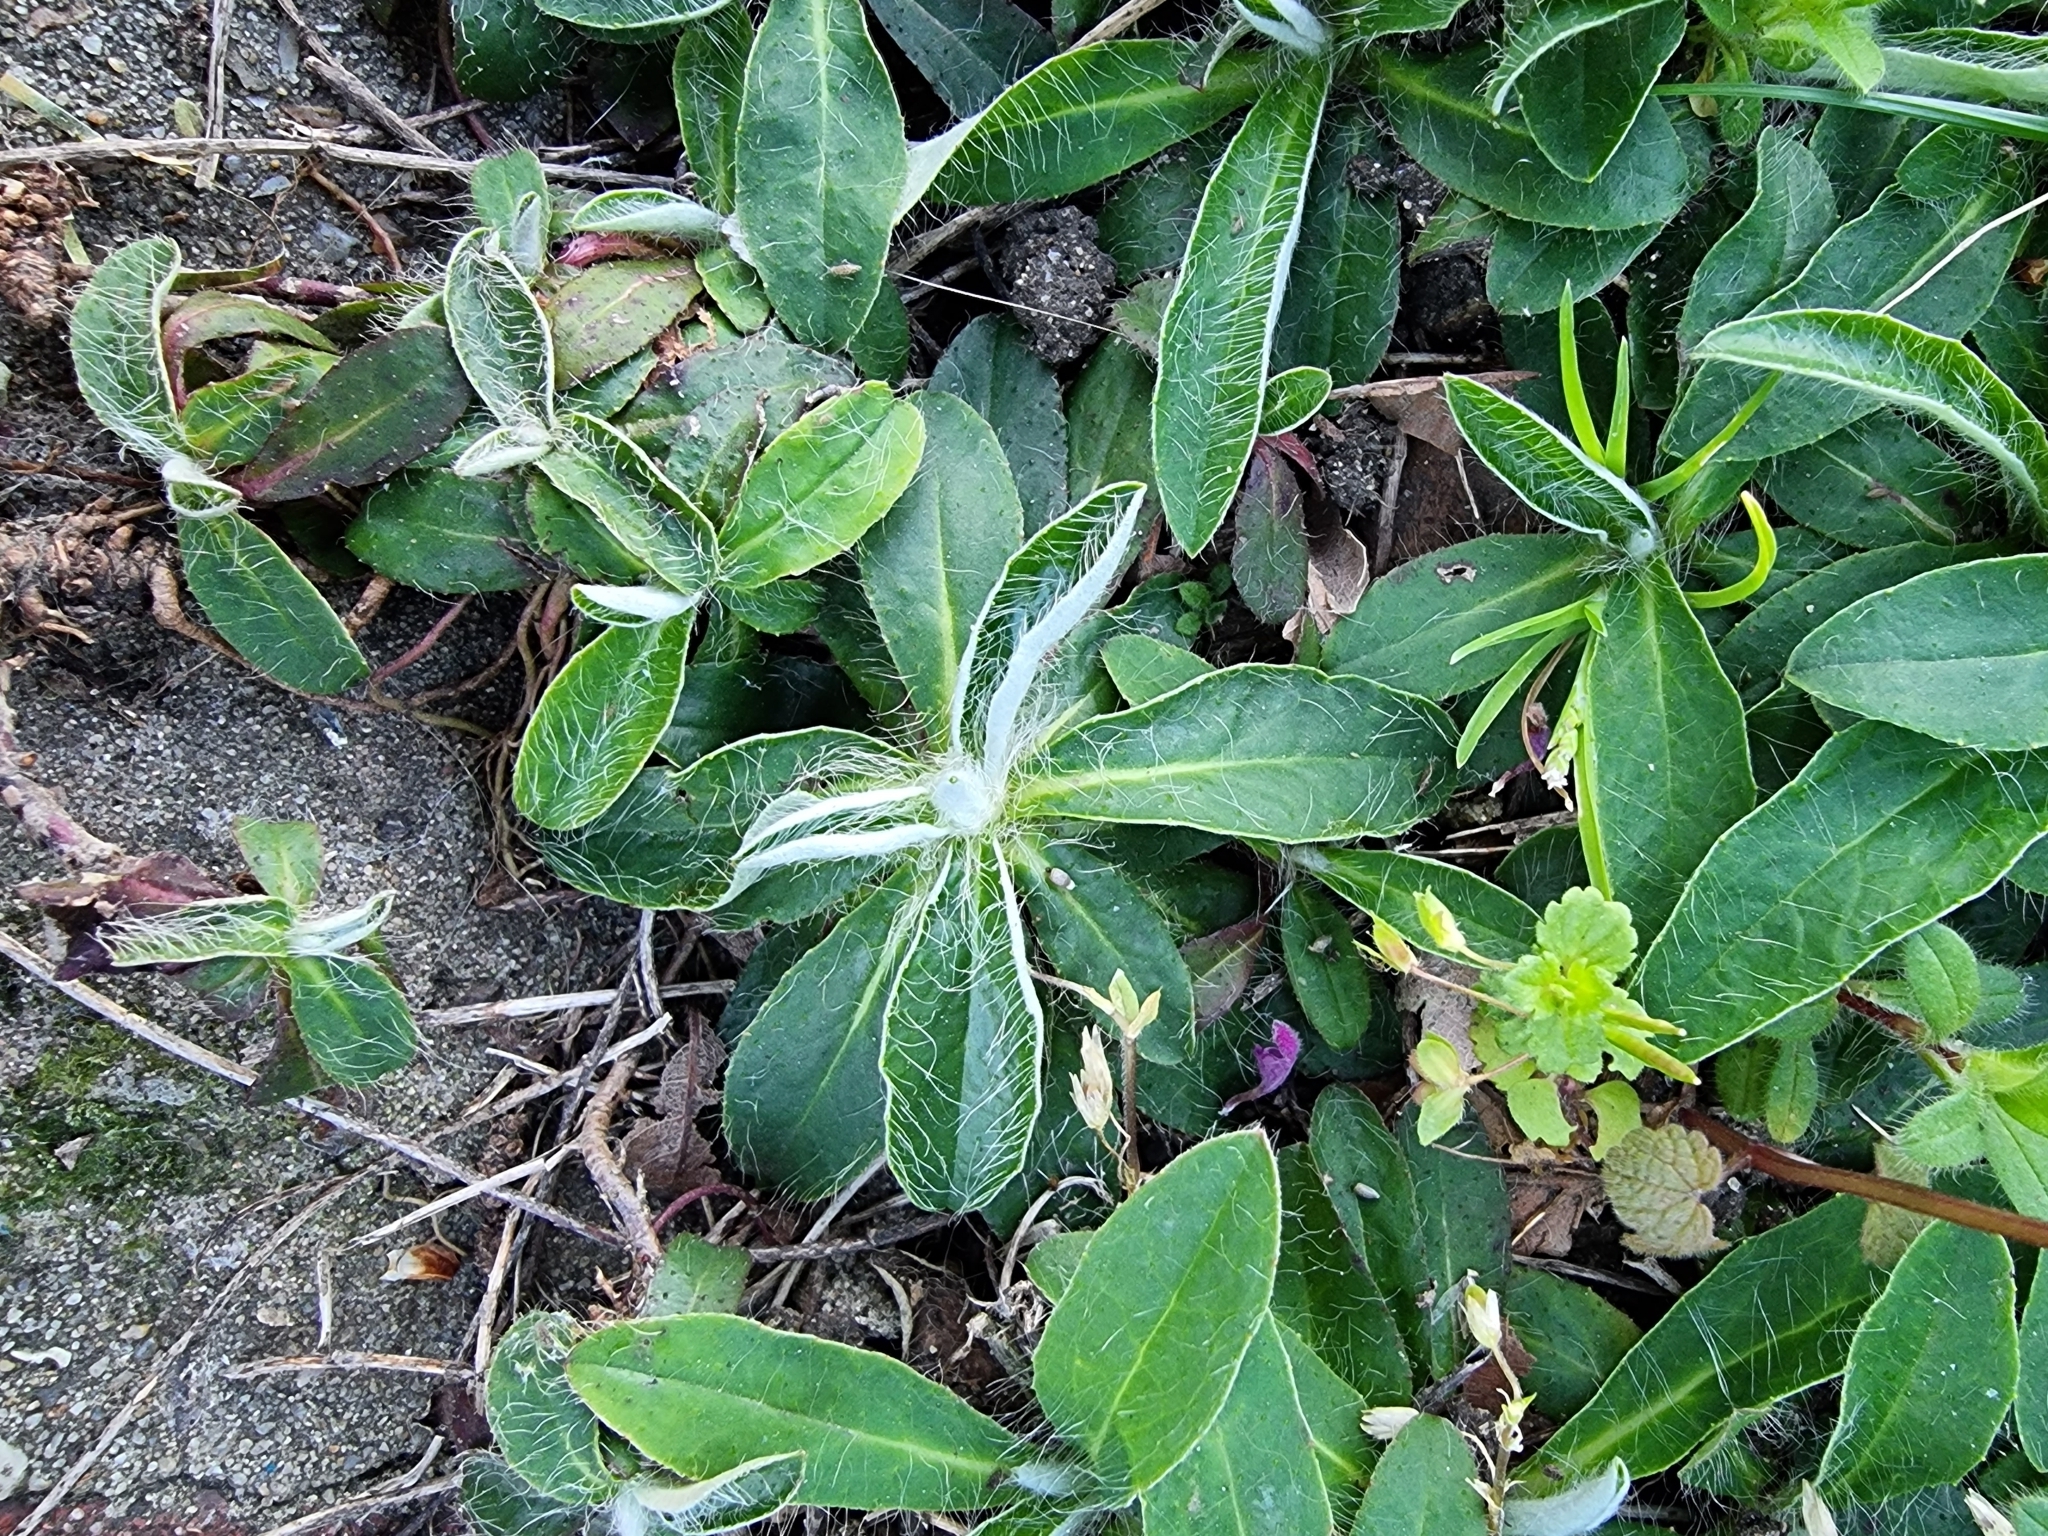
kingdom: Plantae
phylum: Tracheophyta
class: Magnoliopsida
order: Asterales
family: Asteraceae
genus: Pilosella
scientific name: Pilosella officinarum
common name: Mouse-ear hawkweed
